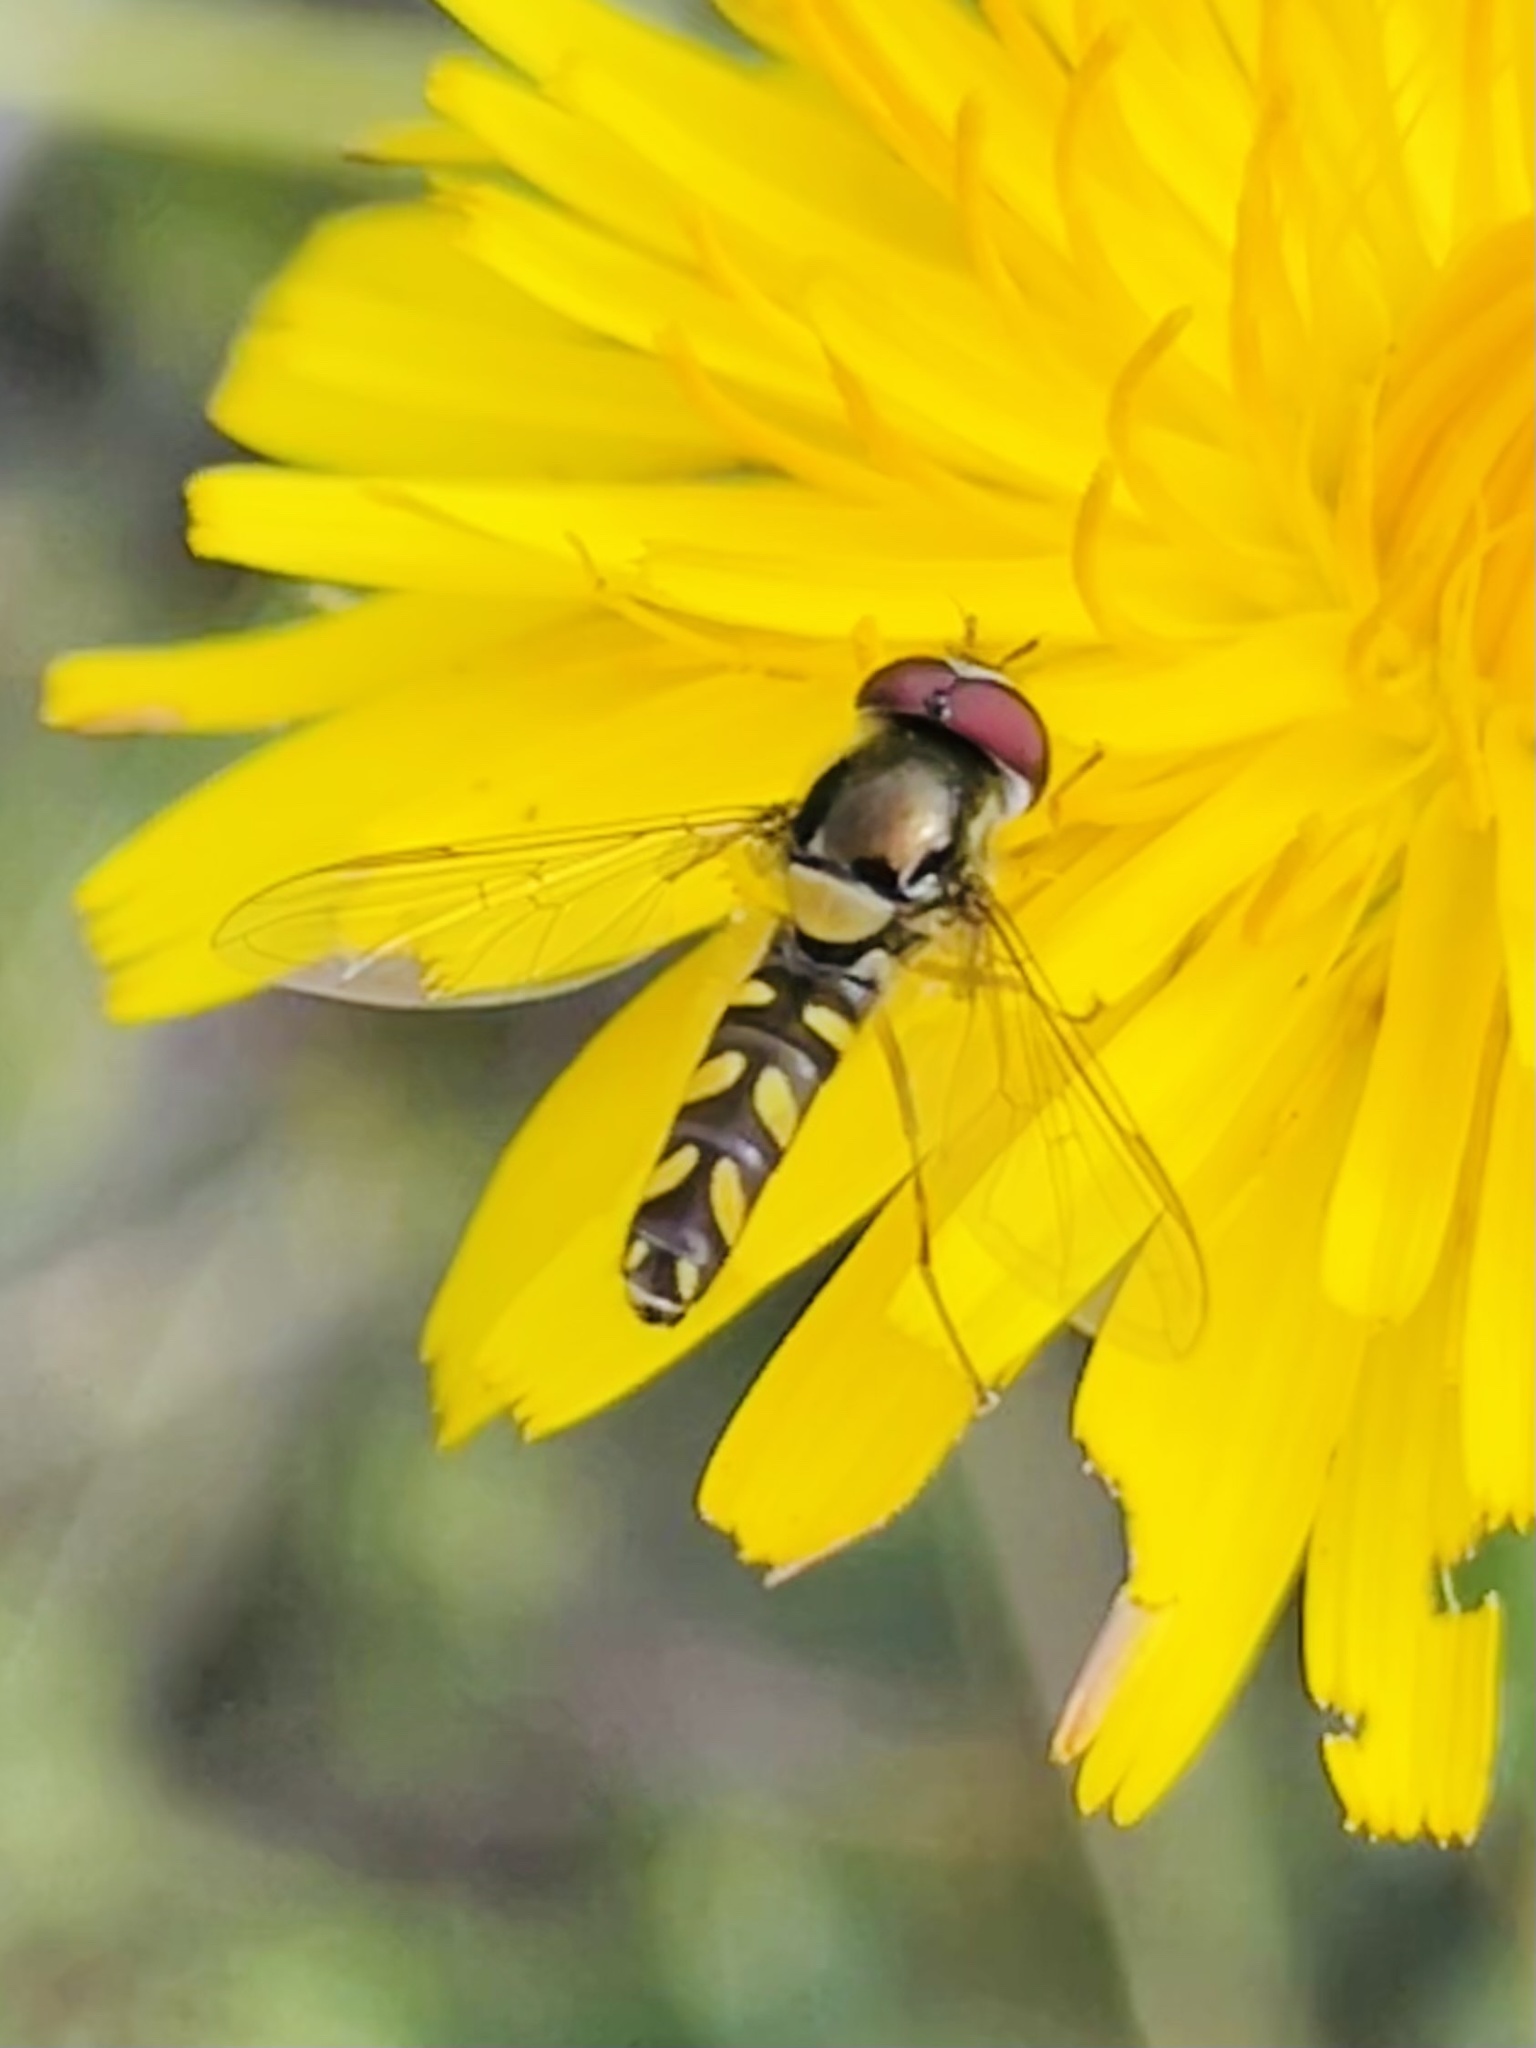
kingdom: Animalia
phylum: Arthropoda
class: Insecta
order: Diptera
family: Syrphidae
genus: Allograpta
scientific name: Allograpta hortensis
